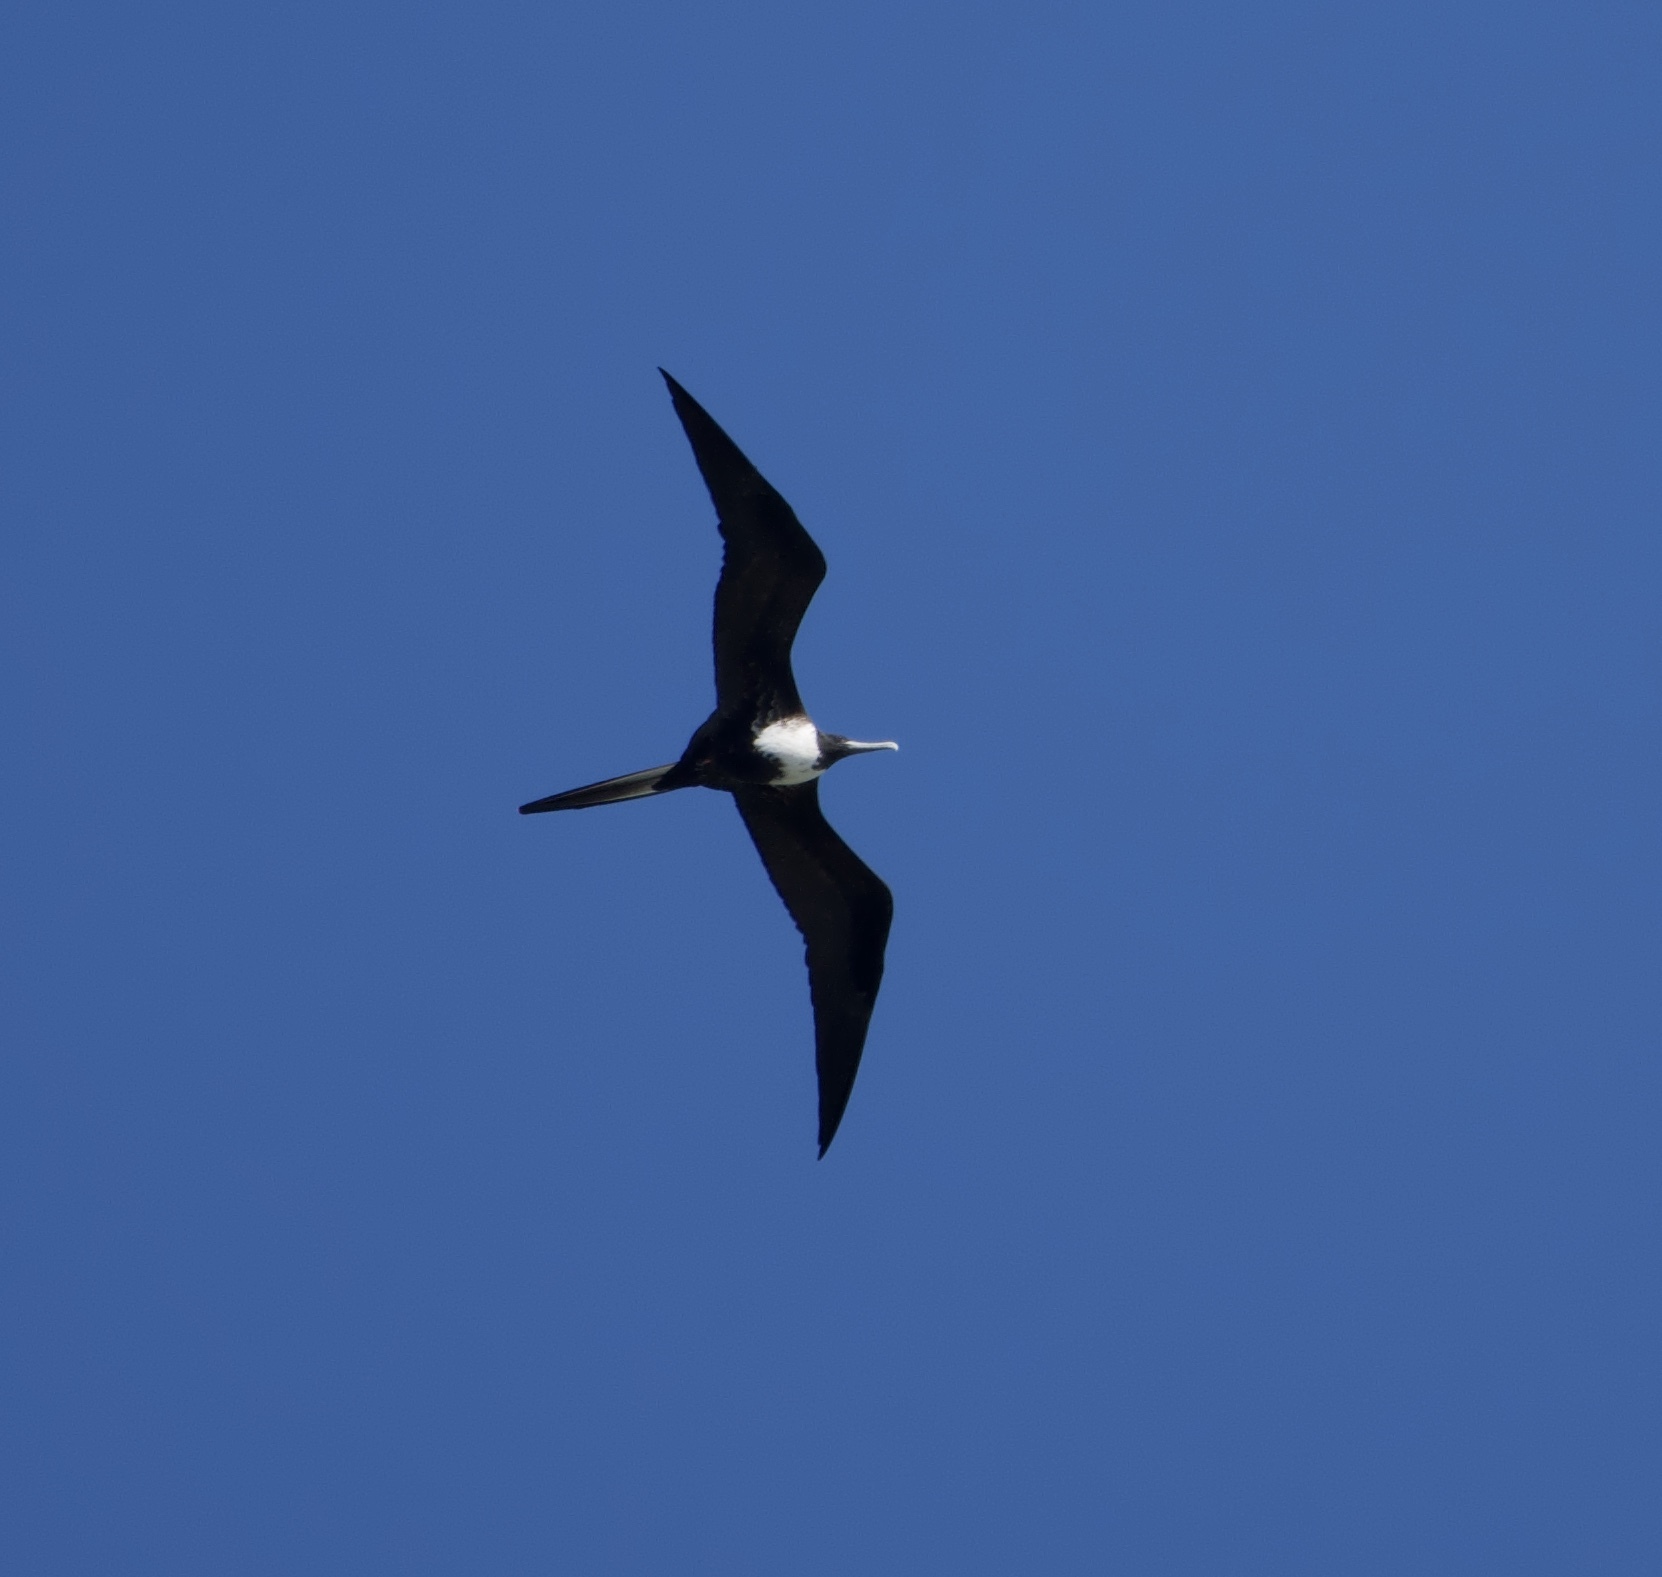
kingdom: Animalia
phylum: Chordata
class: Aves
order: Suliformes
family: Fregatidae
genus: Fregata
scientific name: Fregata magnificens
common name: Magnificent frigatebird
